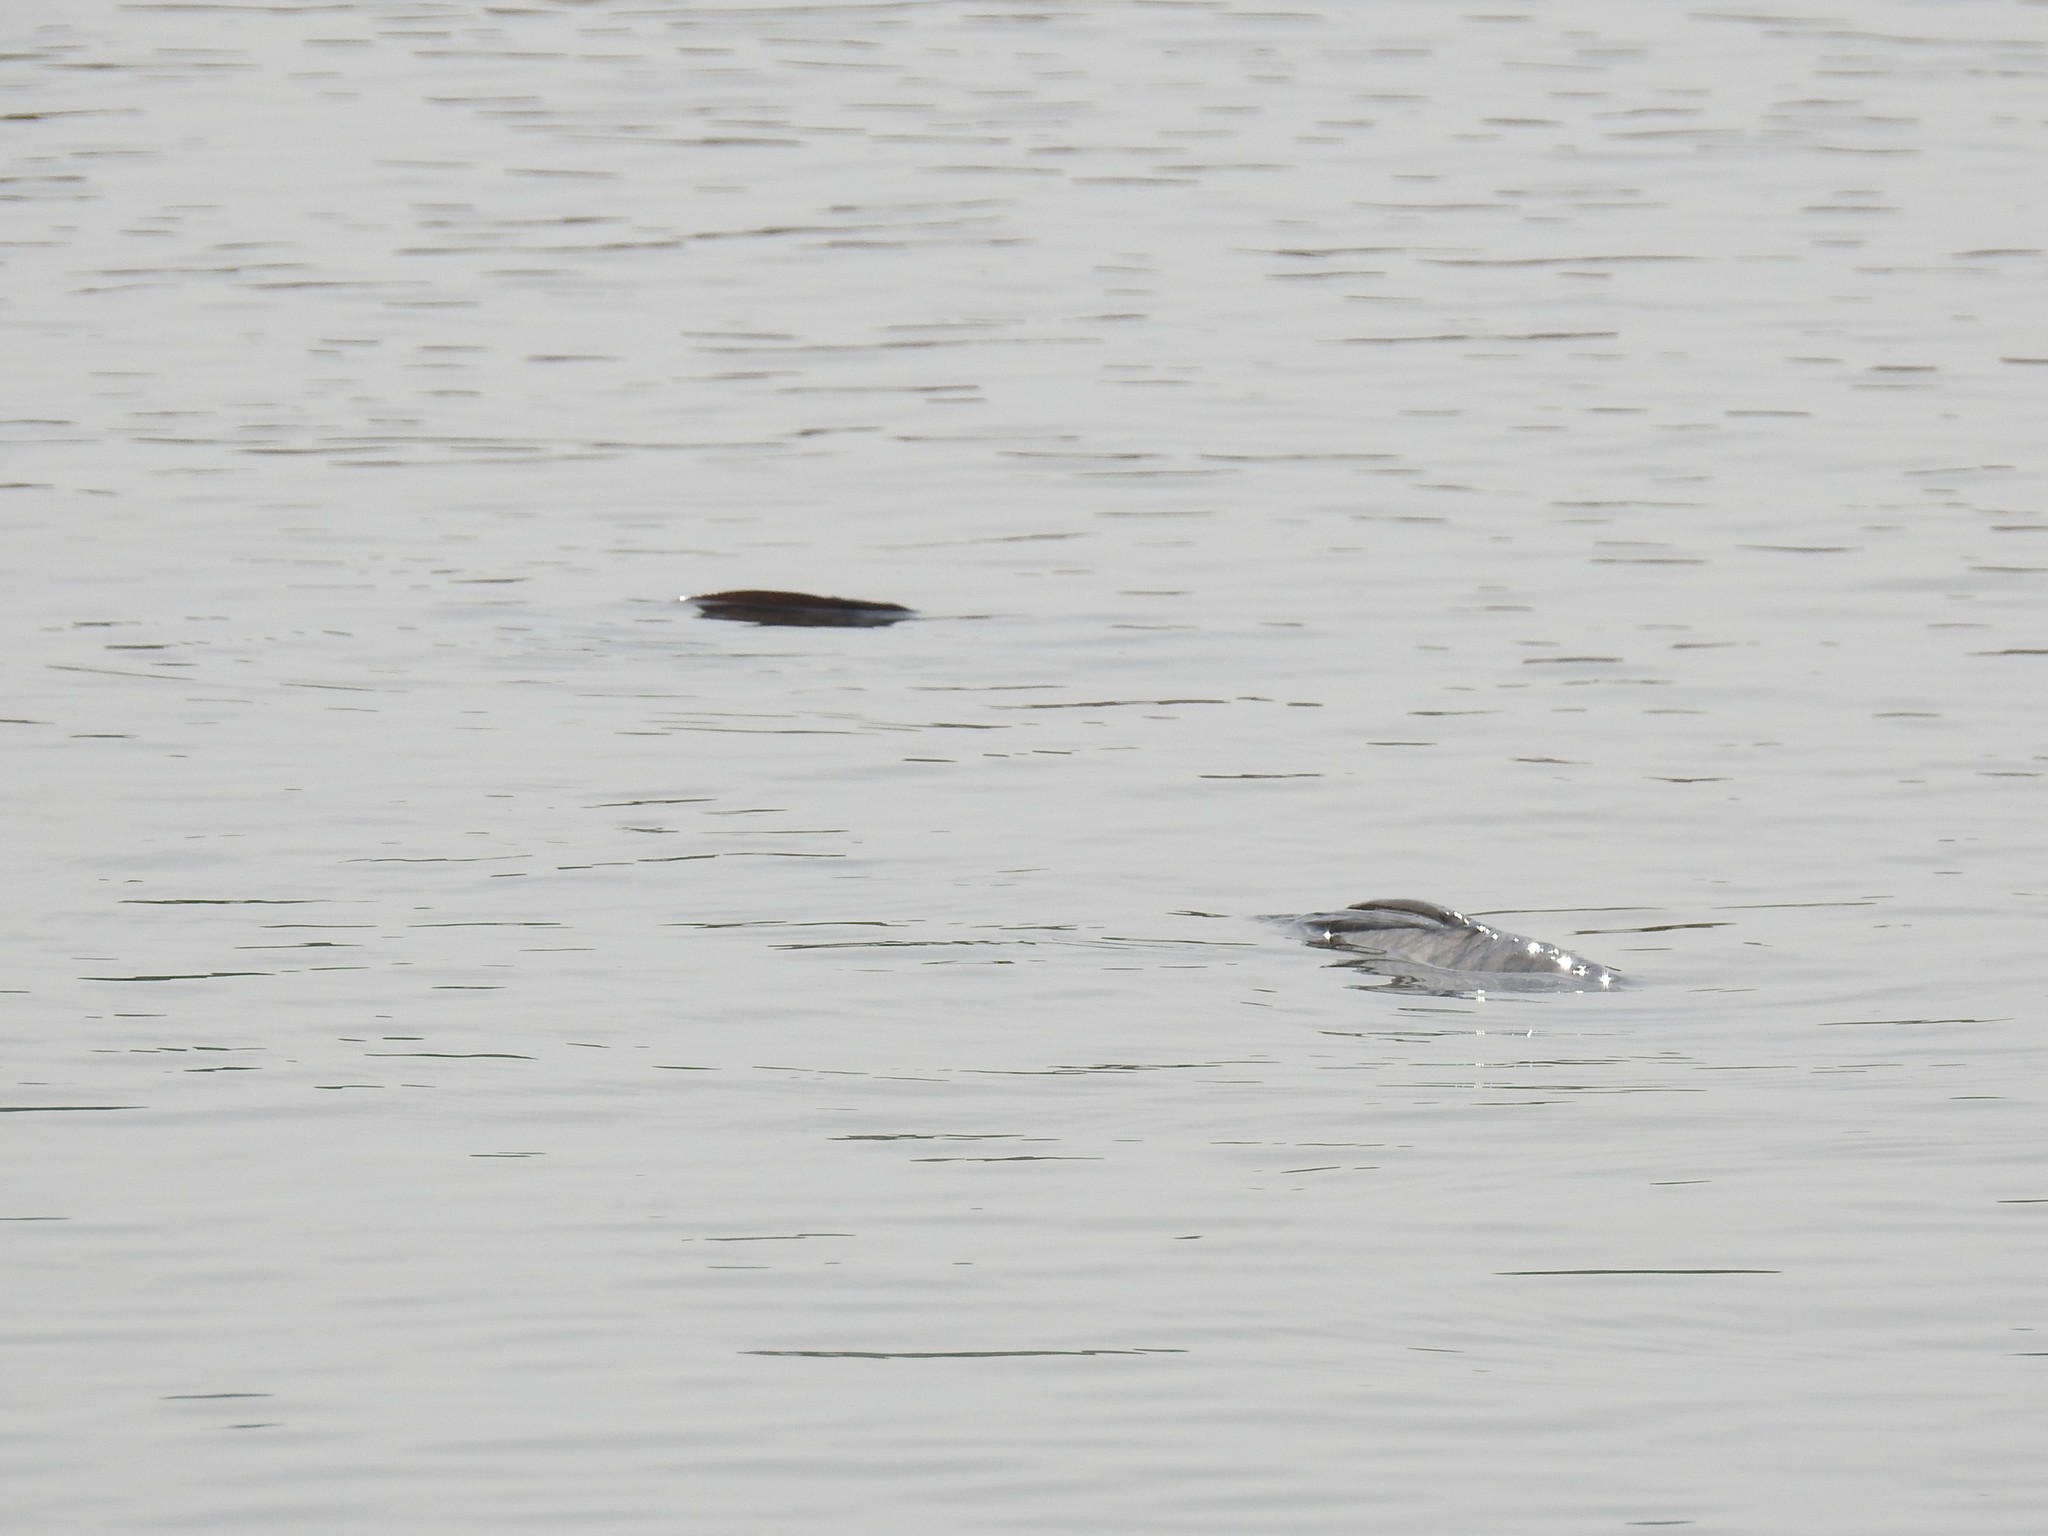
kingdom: Animalia
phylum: Chordata
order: Cypriniformes
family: Cyprinidae
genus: Cyprinus
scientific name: Cyprinus carpio
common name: Common carp
